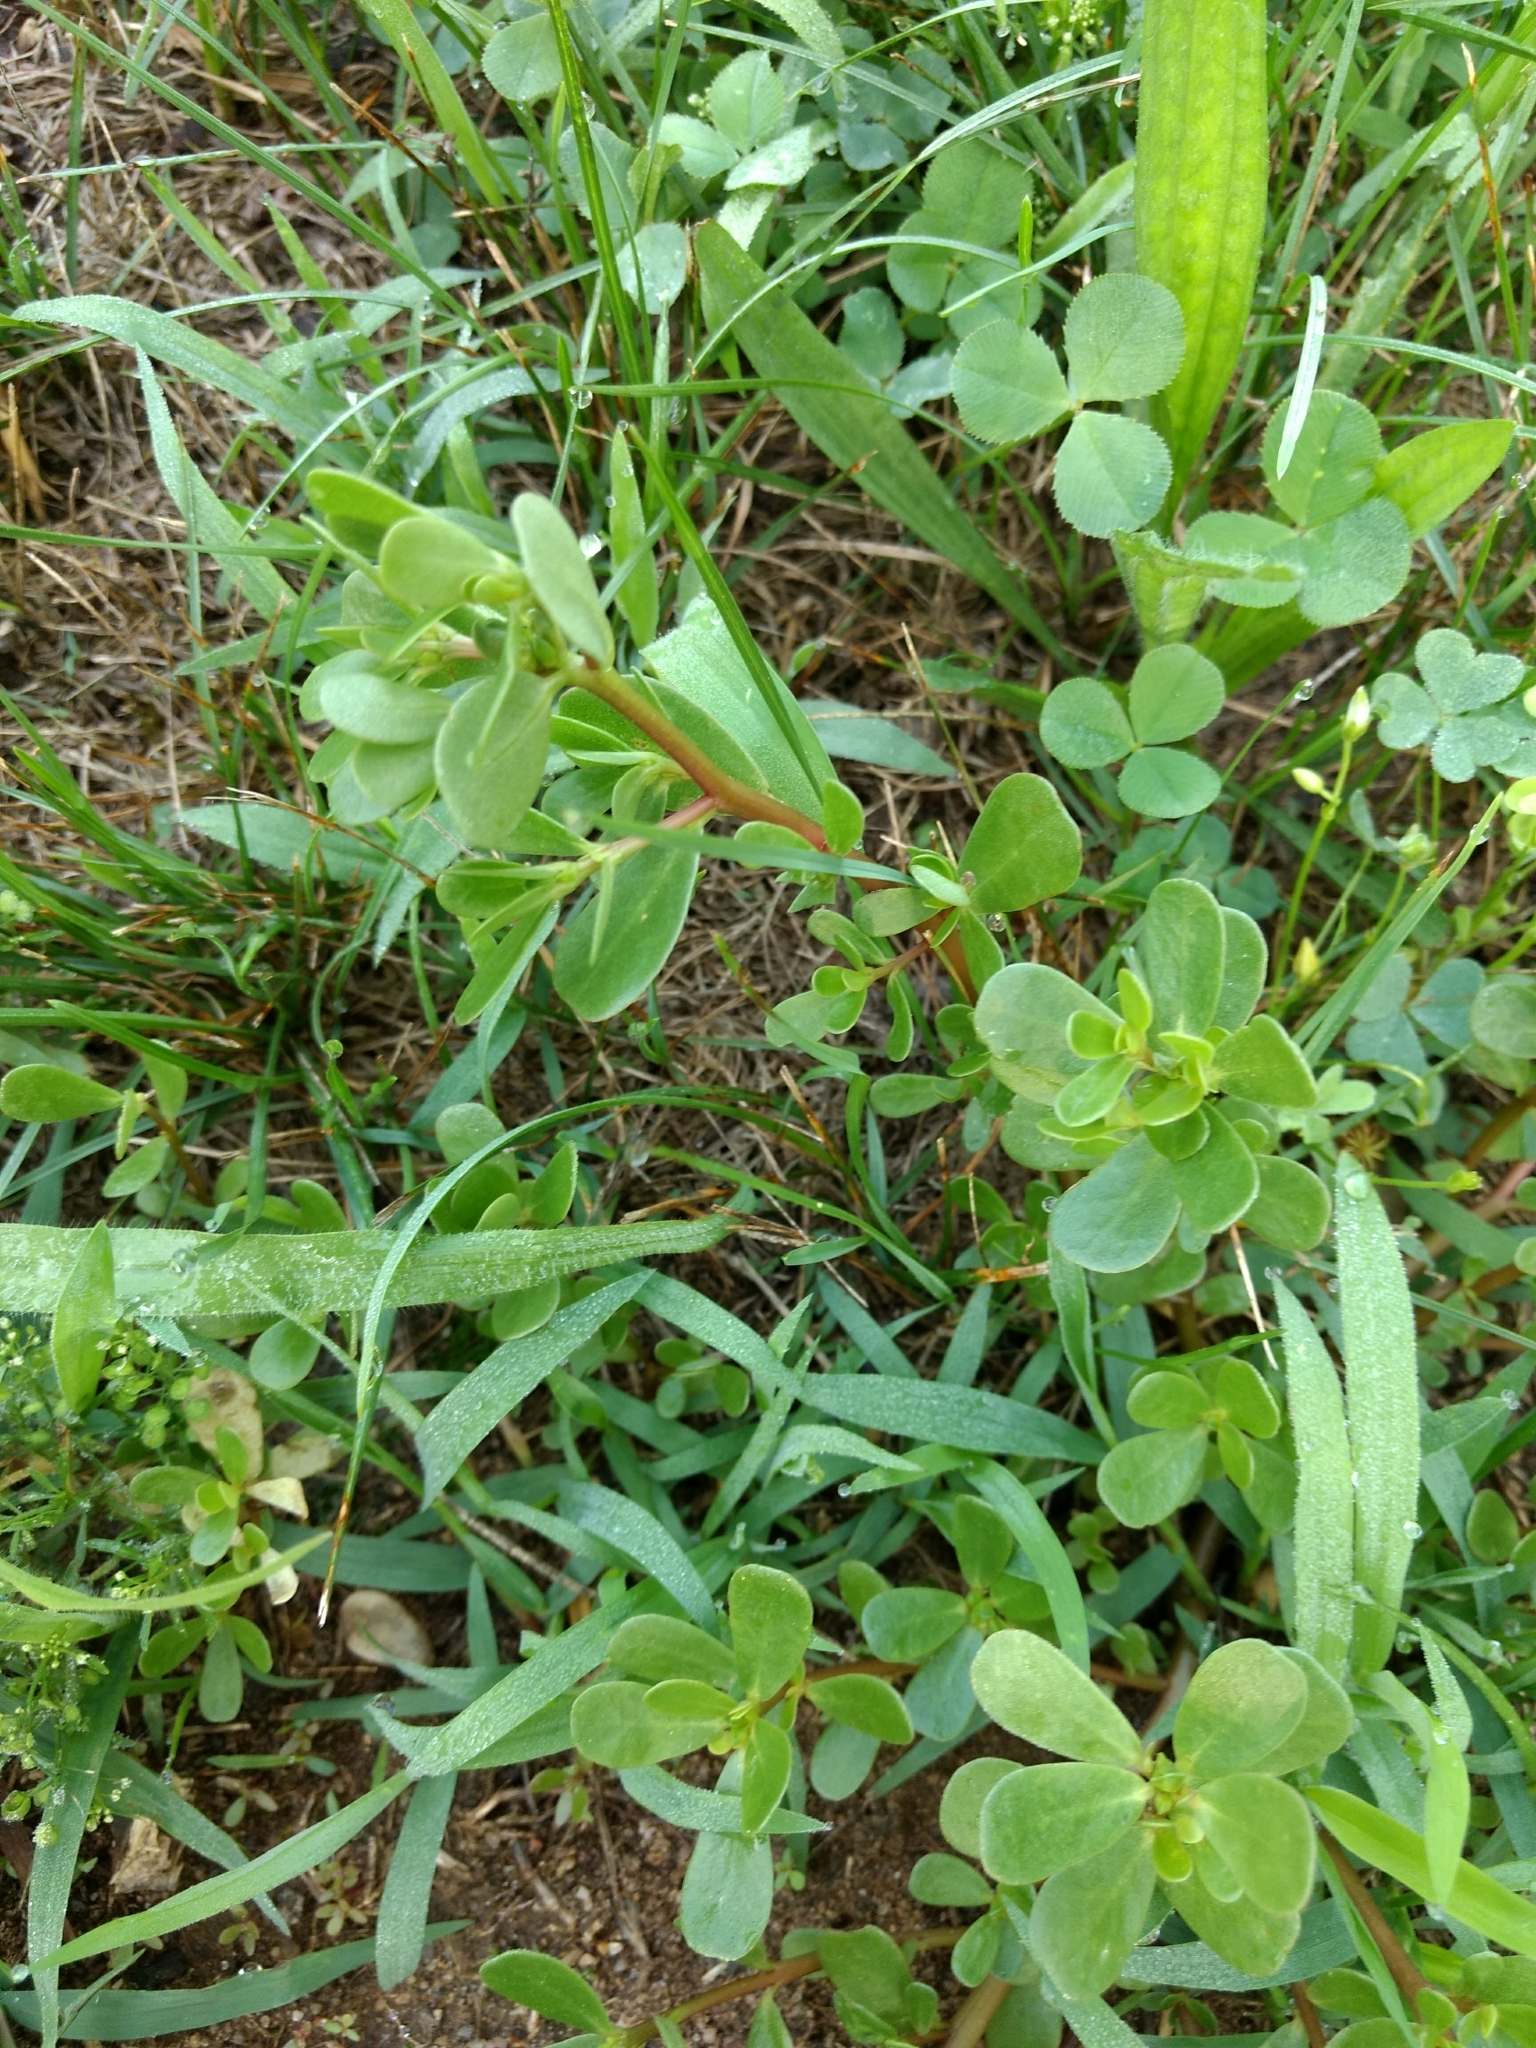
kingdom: Plantae
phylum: Tracheophyta
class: Magnoliopsida
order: Caryophyllales
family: Portulacaceae
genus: Portulaca
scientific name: Portulaca oleracea
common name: Common purslane
